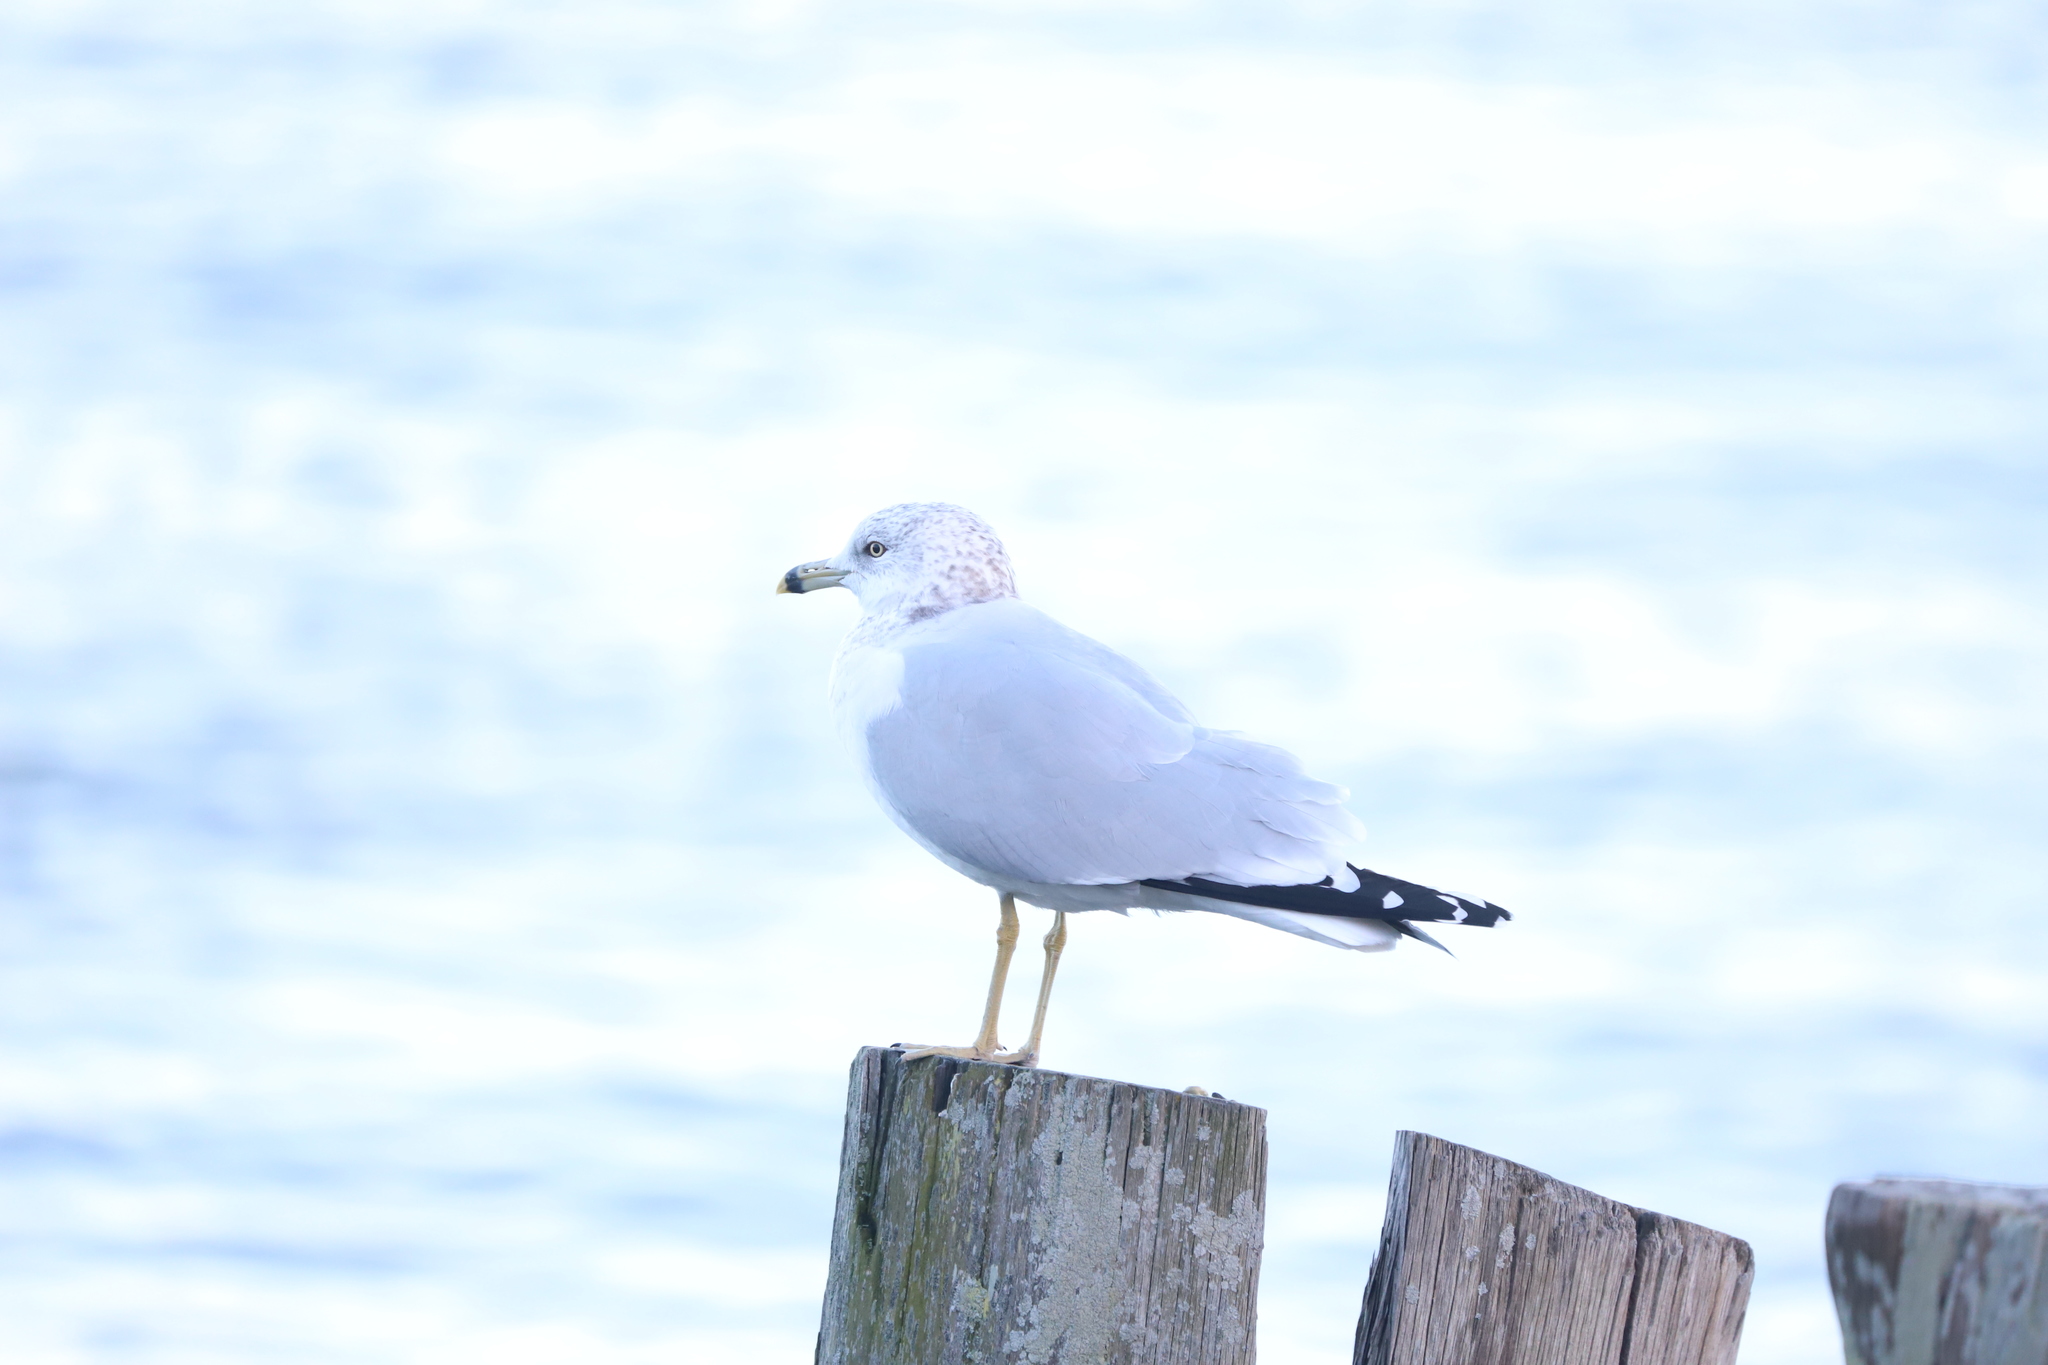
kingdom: Animalia
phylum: Chordata
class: Aves
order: Charadriiformes
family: Laridae
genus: Larus
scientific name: Larus delawarensis
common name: Ring-billed gull
